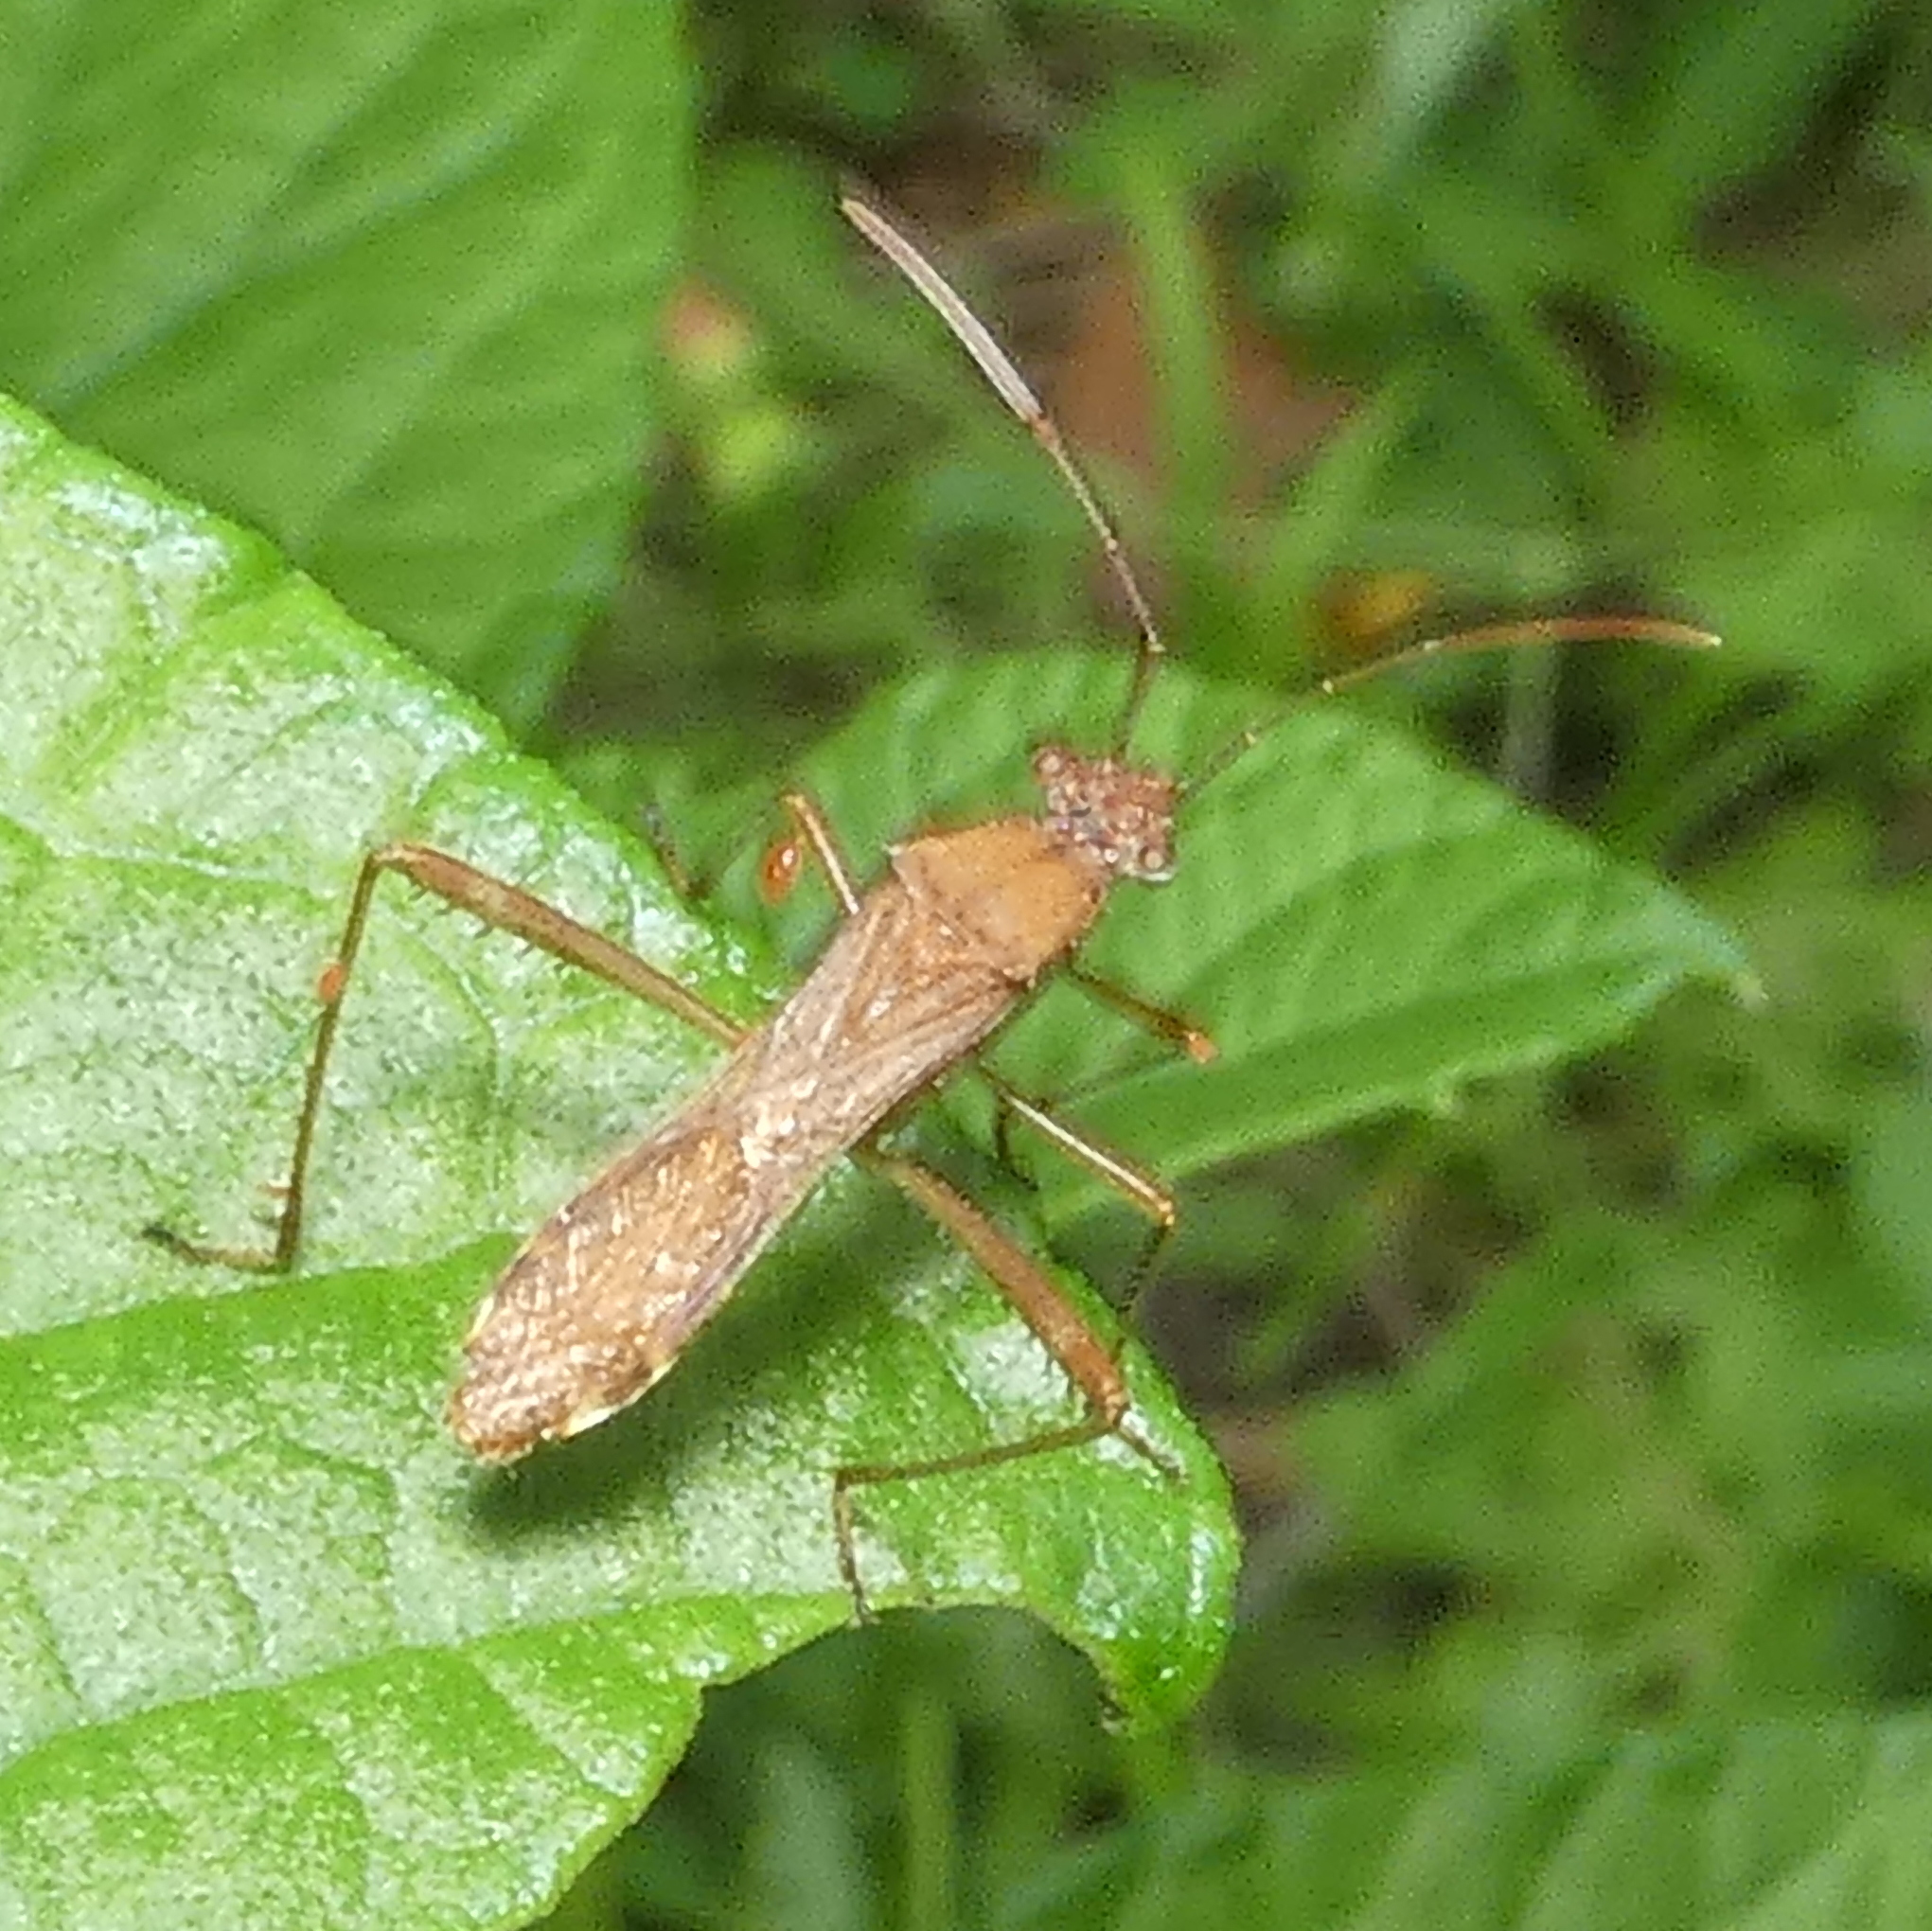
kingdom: Animalia
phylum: Arthropoda
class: Insecta
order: Hemiptera
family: Alydidae
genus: Neomegalotomus
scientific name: Neomegalotomus parvus
